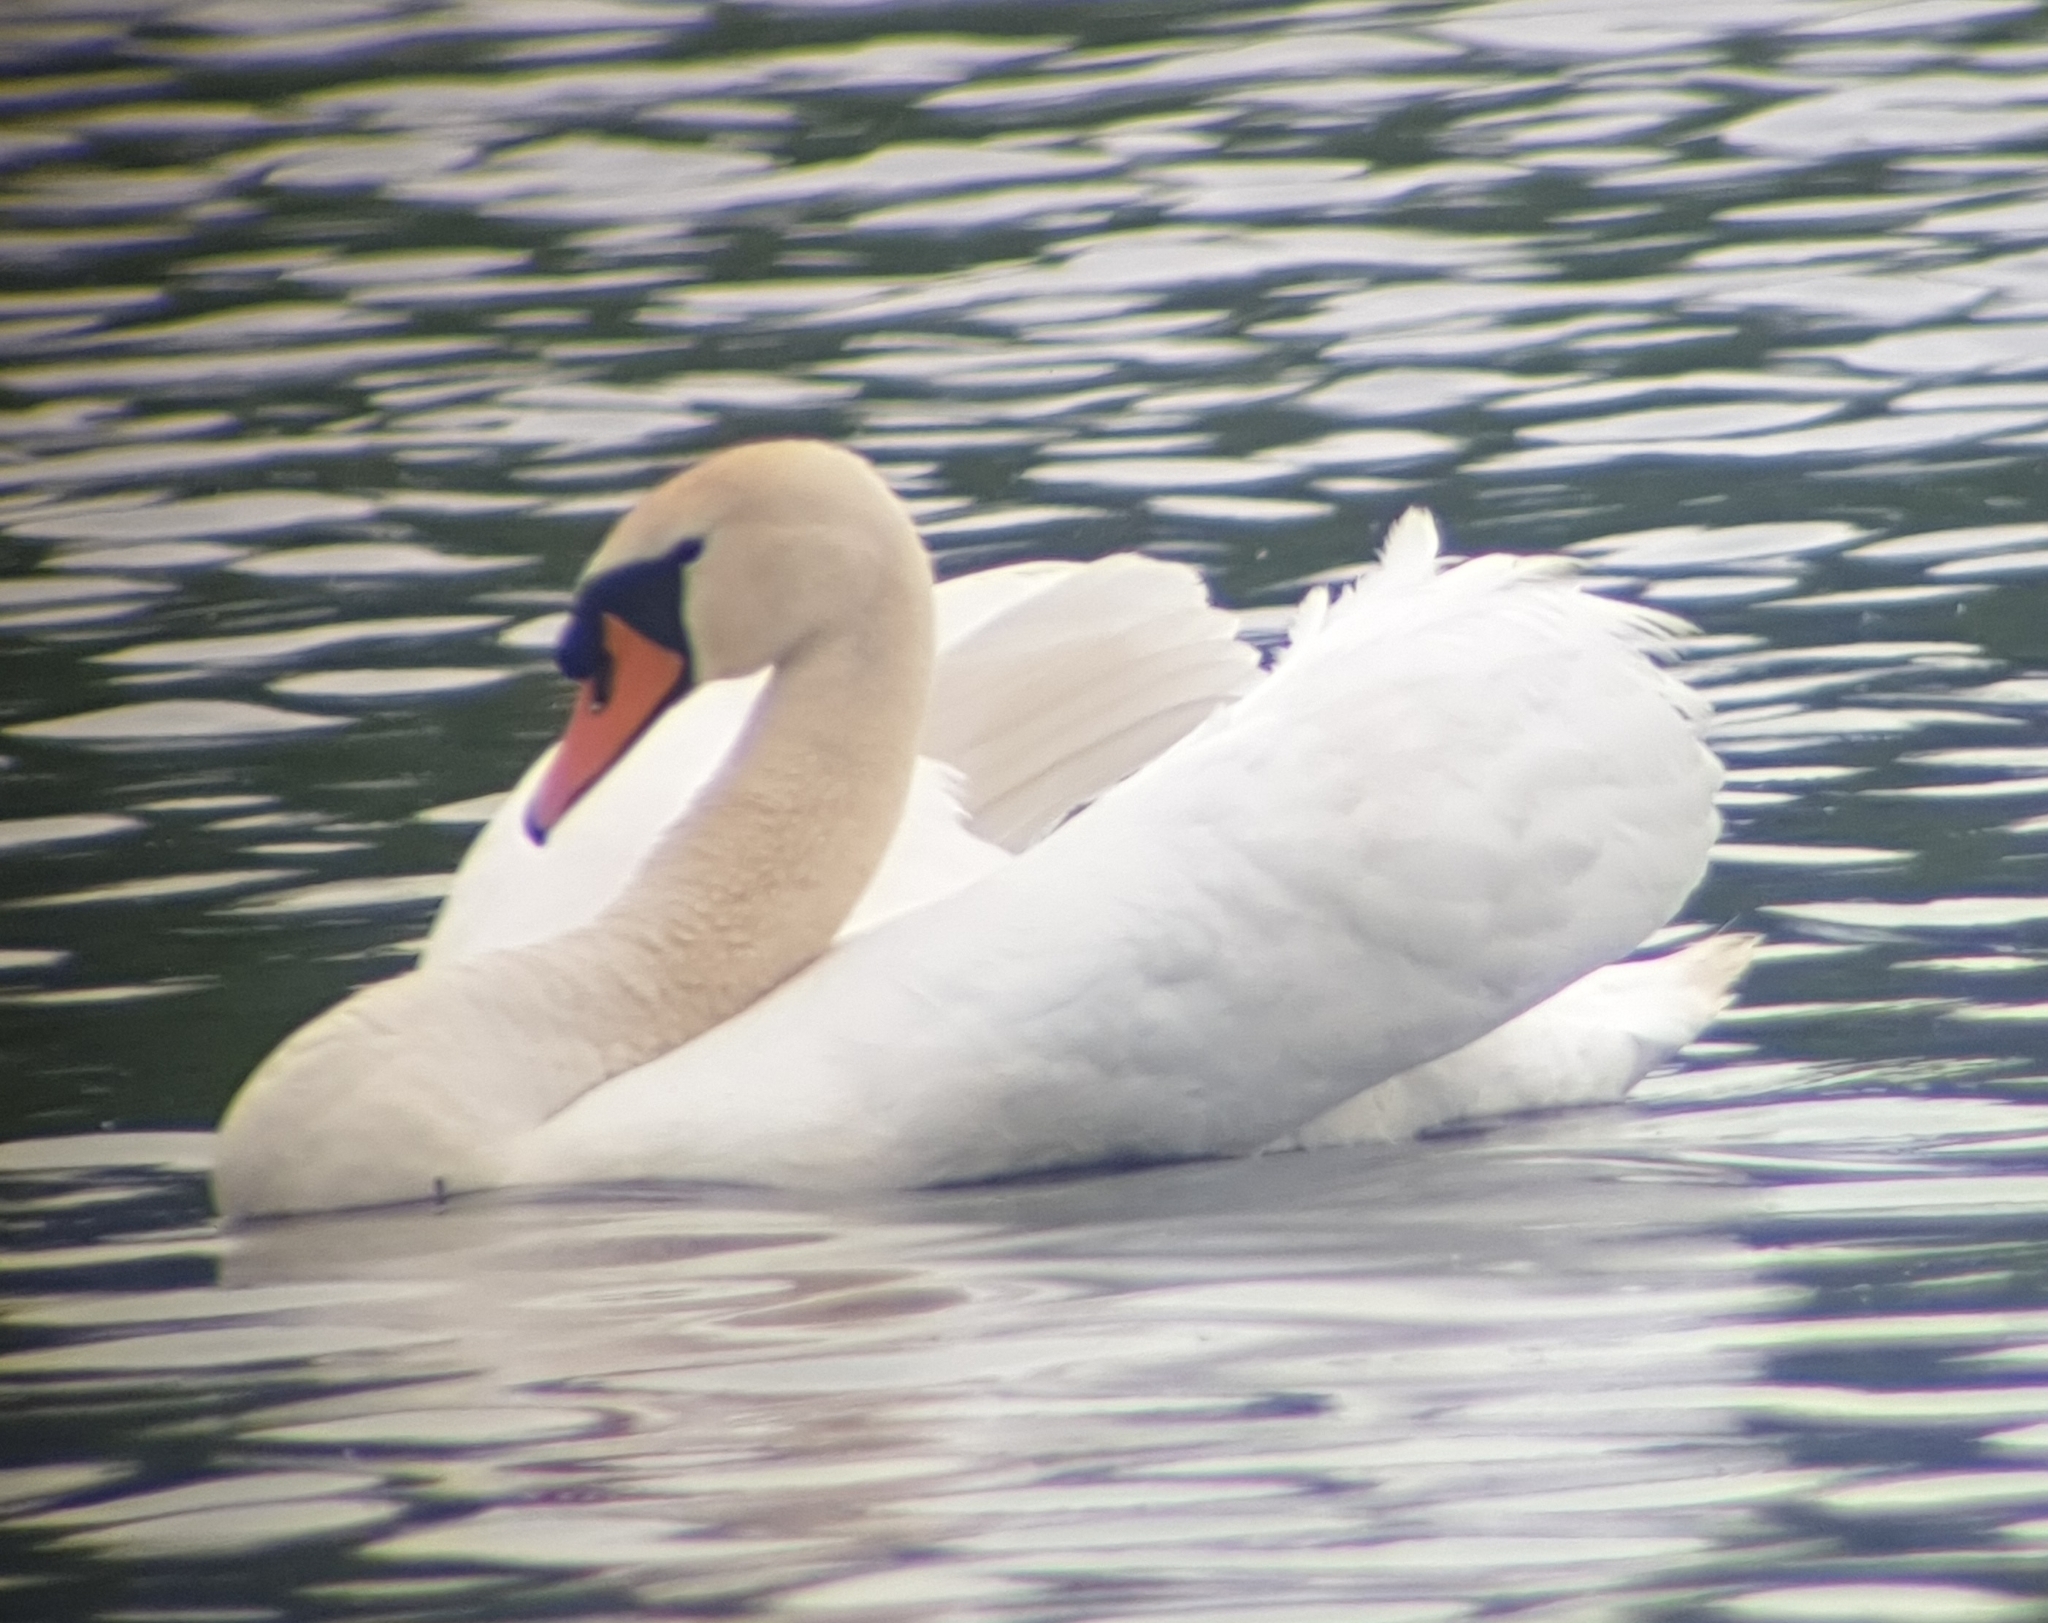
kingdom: Animalia
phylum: Chordata
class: Aves
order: Anseriformes
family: Anatidae
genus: Cygnus
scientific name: Cygnus olor
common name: Mute swan
